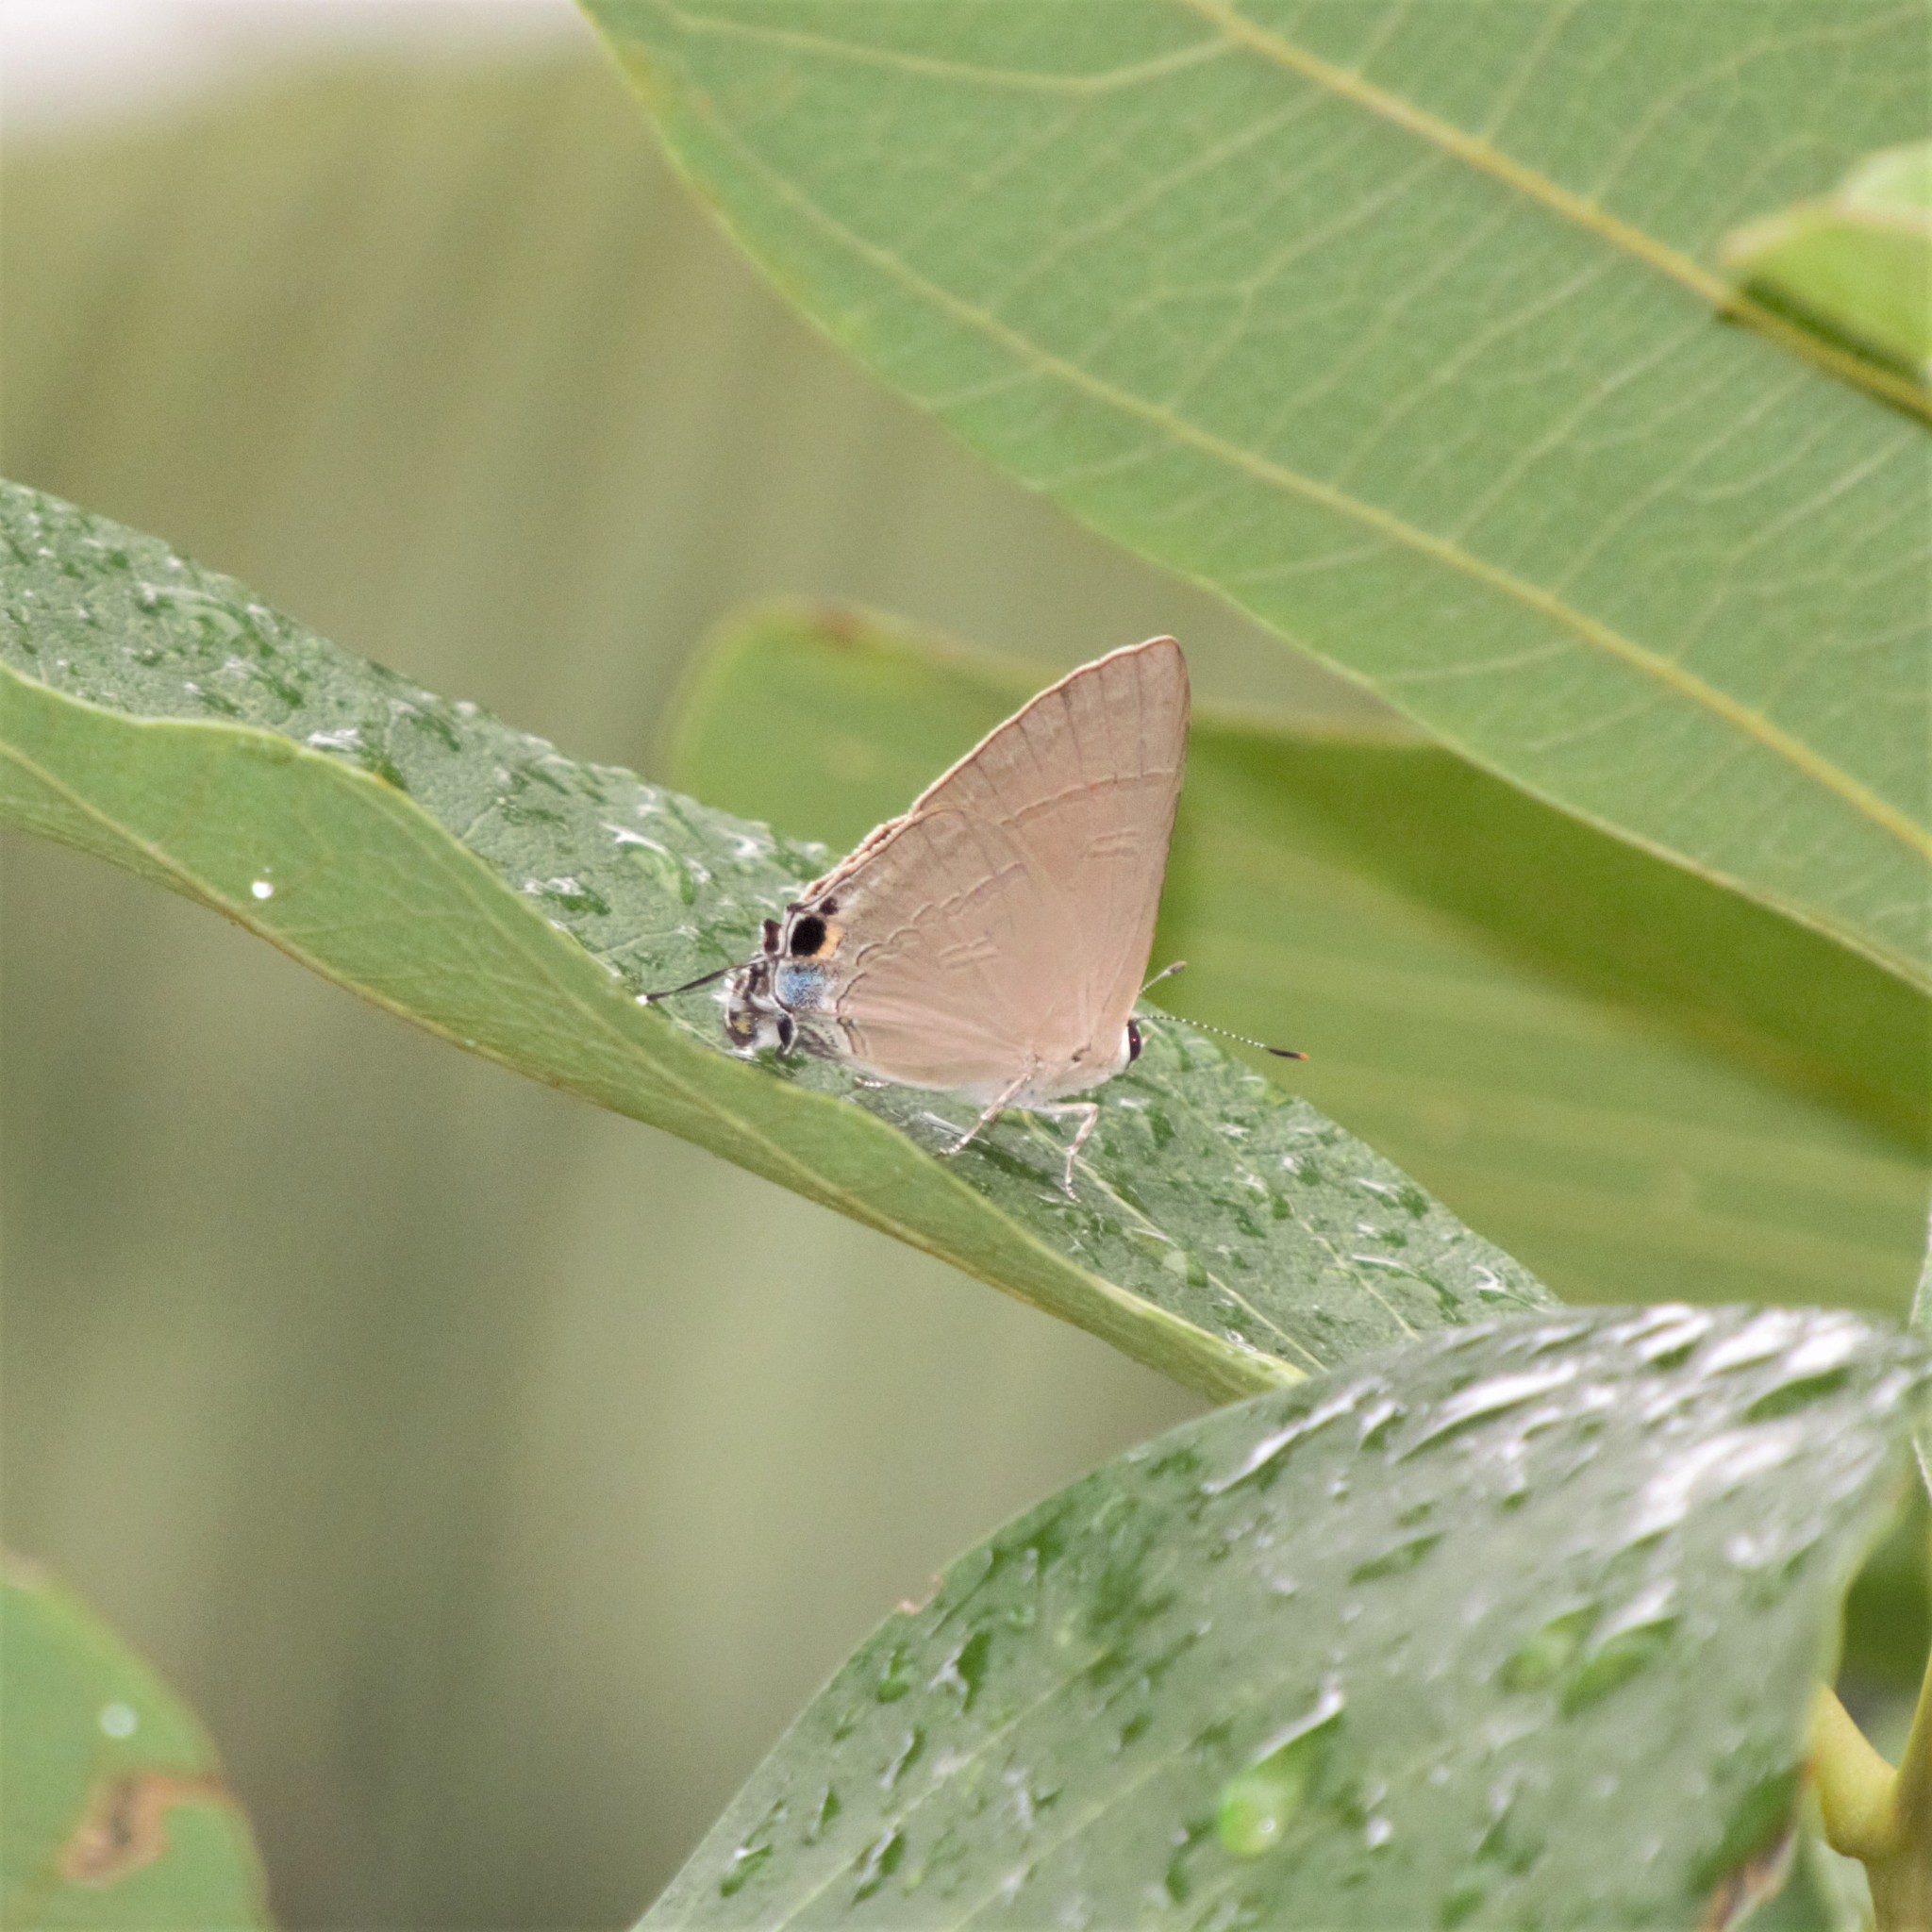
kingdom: Animalia
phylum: Arthropoda
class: Insecta
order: Lepidoptera
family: Lycaenidae
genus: Rapala
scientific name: Rapala iarbus
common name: Common red flash
